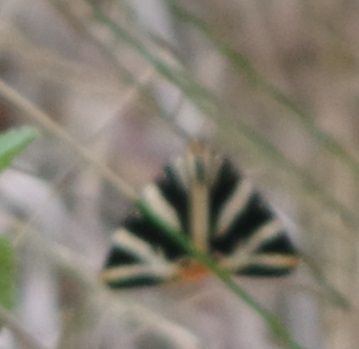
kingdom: Animalia
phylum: Arthropoda
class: Insecta
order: Lepidoptera
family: Erebidae
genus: Euplagia
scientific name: Euplagia quadripunctaria
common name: Jersey tiger
